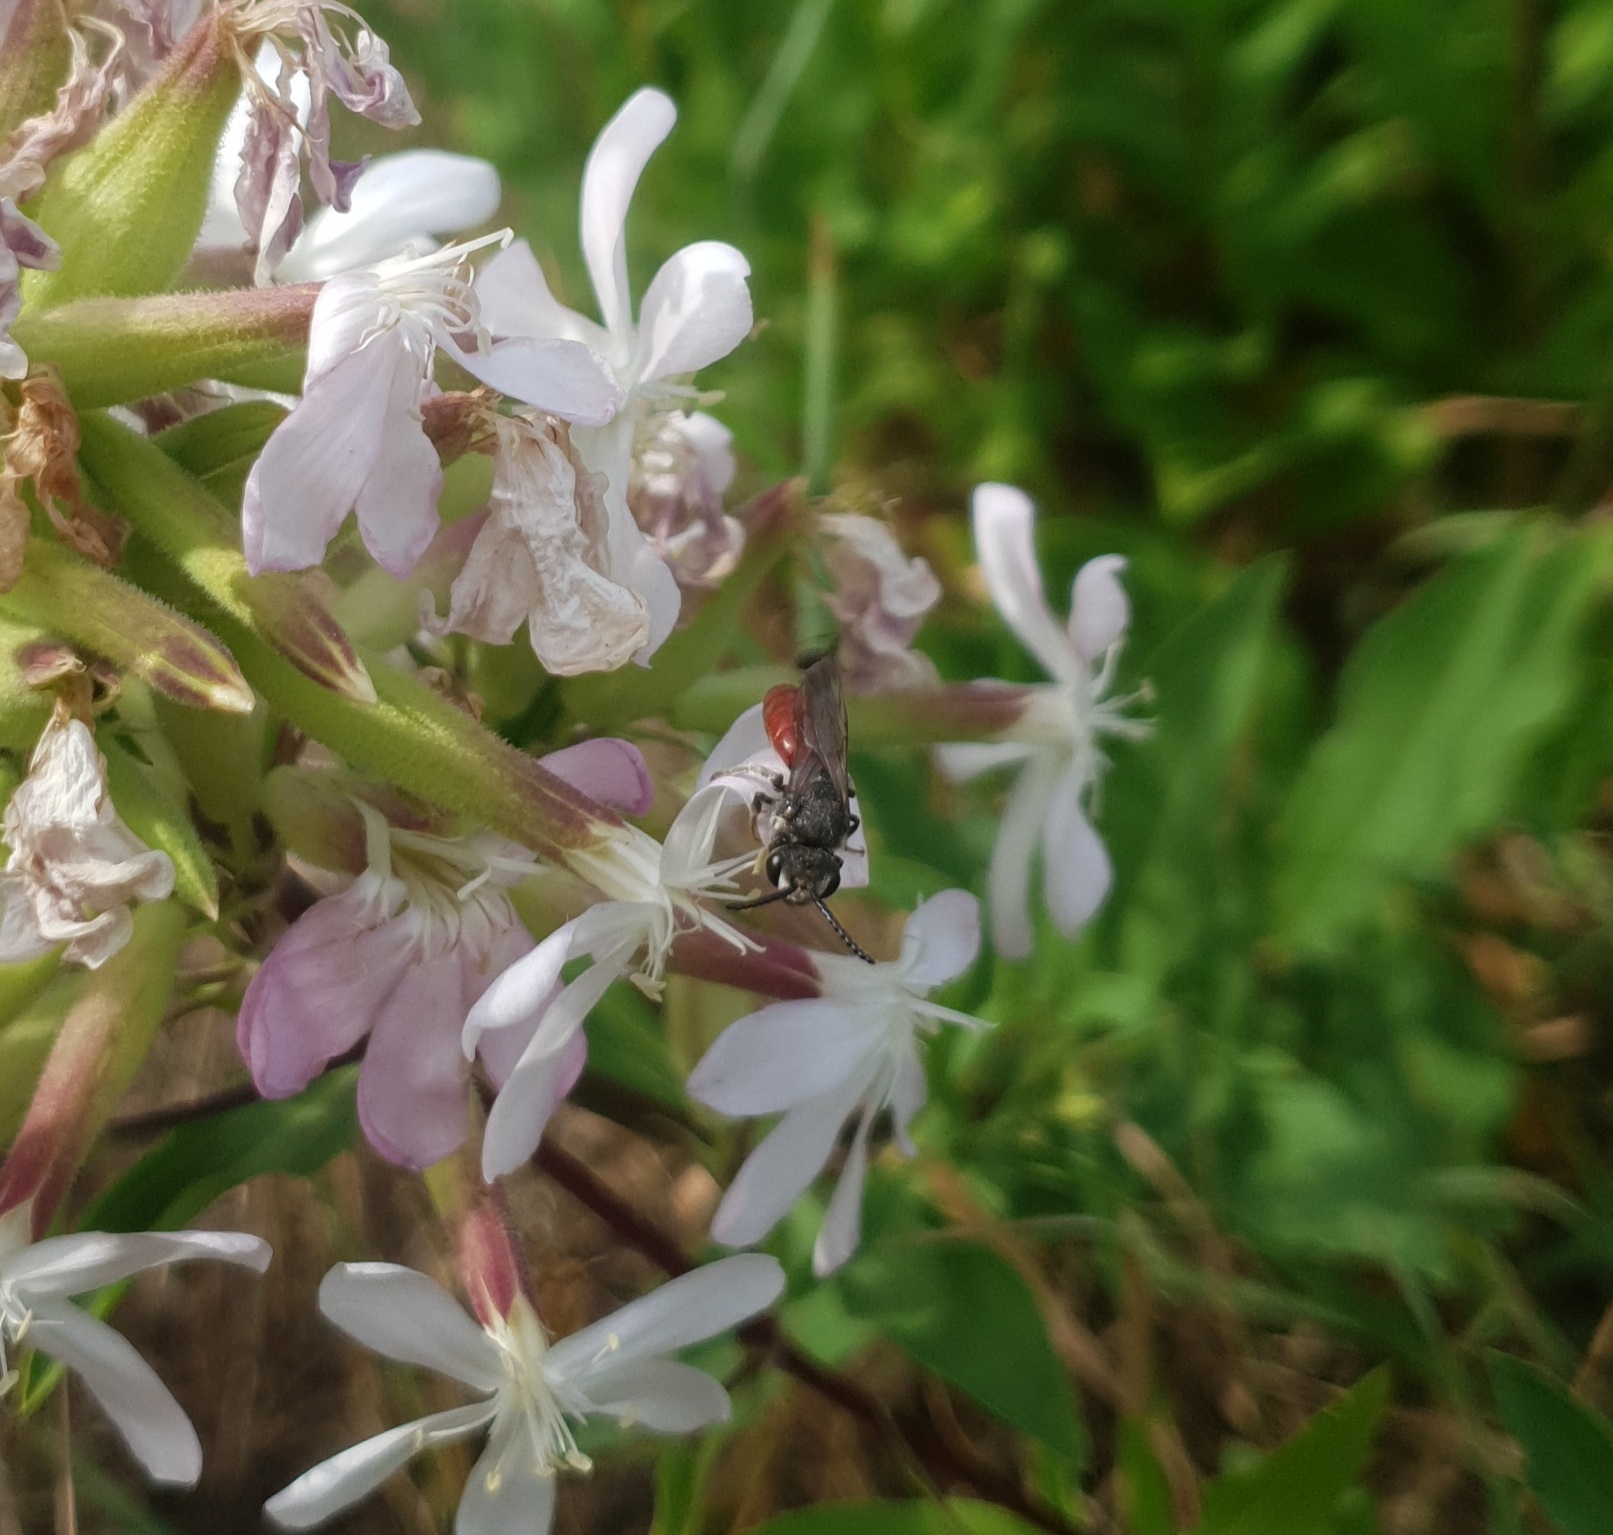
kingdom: Animalia
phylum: Arthropoda
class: Insecta
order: Hymenoptera
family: Halictidae
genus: Sphecodes
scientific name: Sphecodes albilabris
